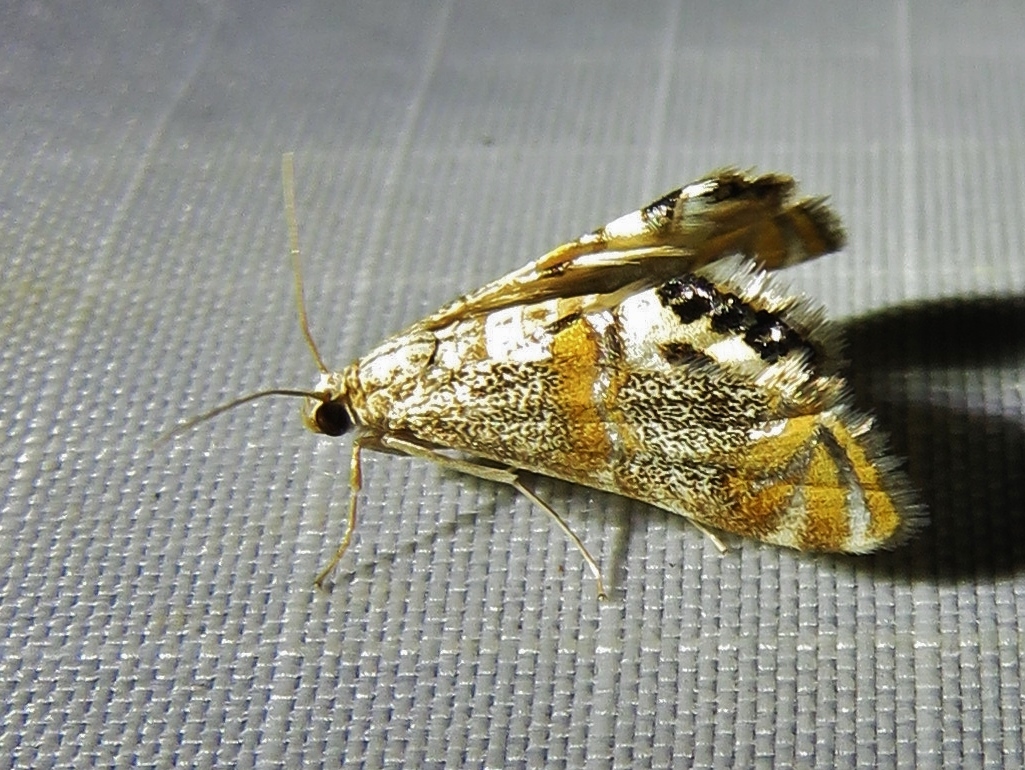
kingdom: Animalia
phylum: Arthropoda
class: Insecta
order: Lepidoptera
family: Crambidae
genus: Petrophila
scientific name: Petrophila bifascialis
